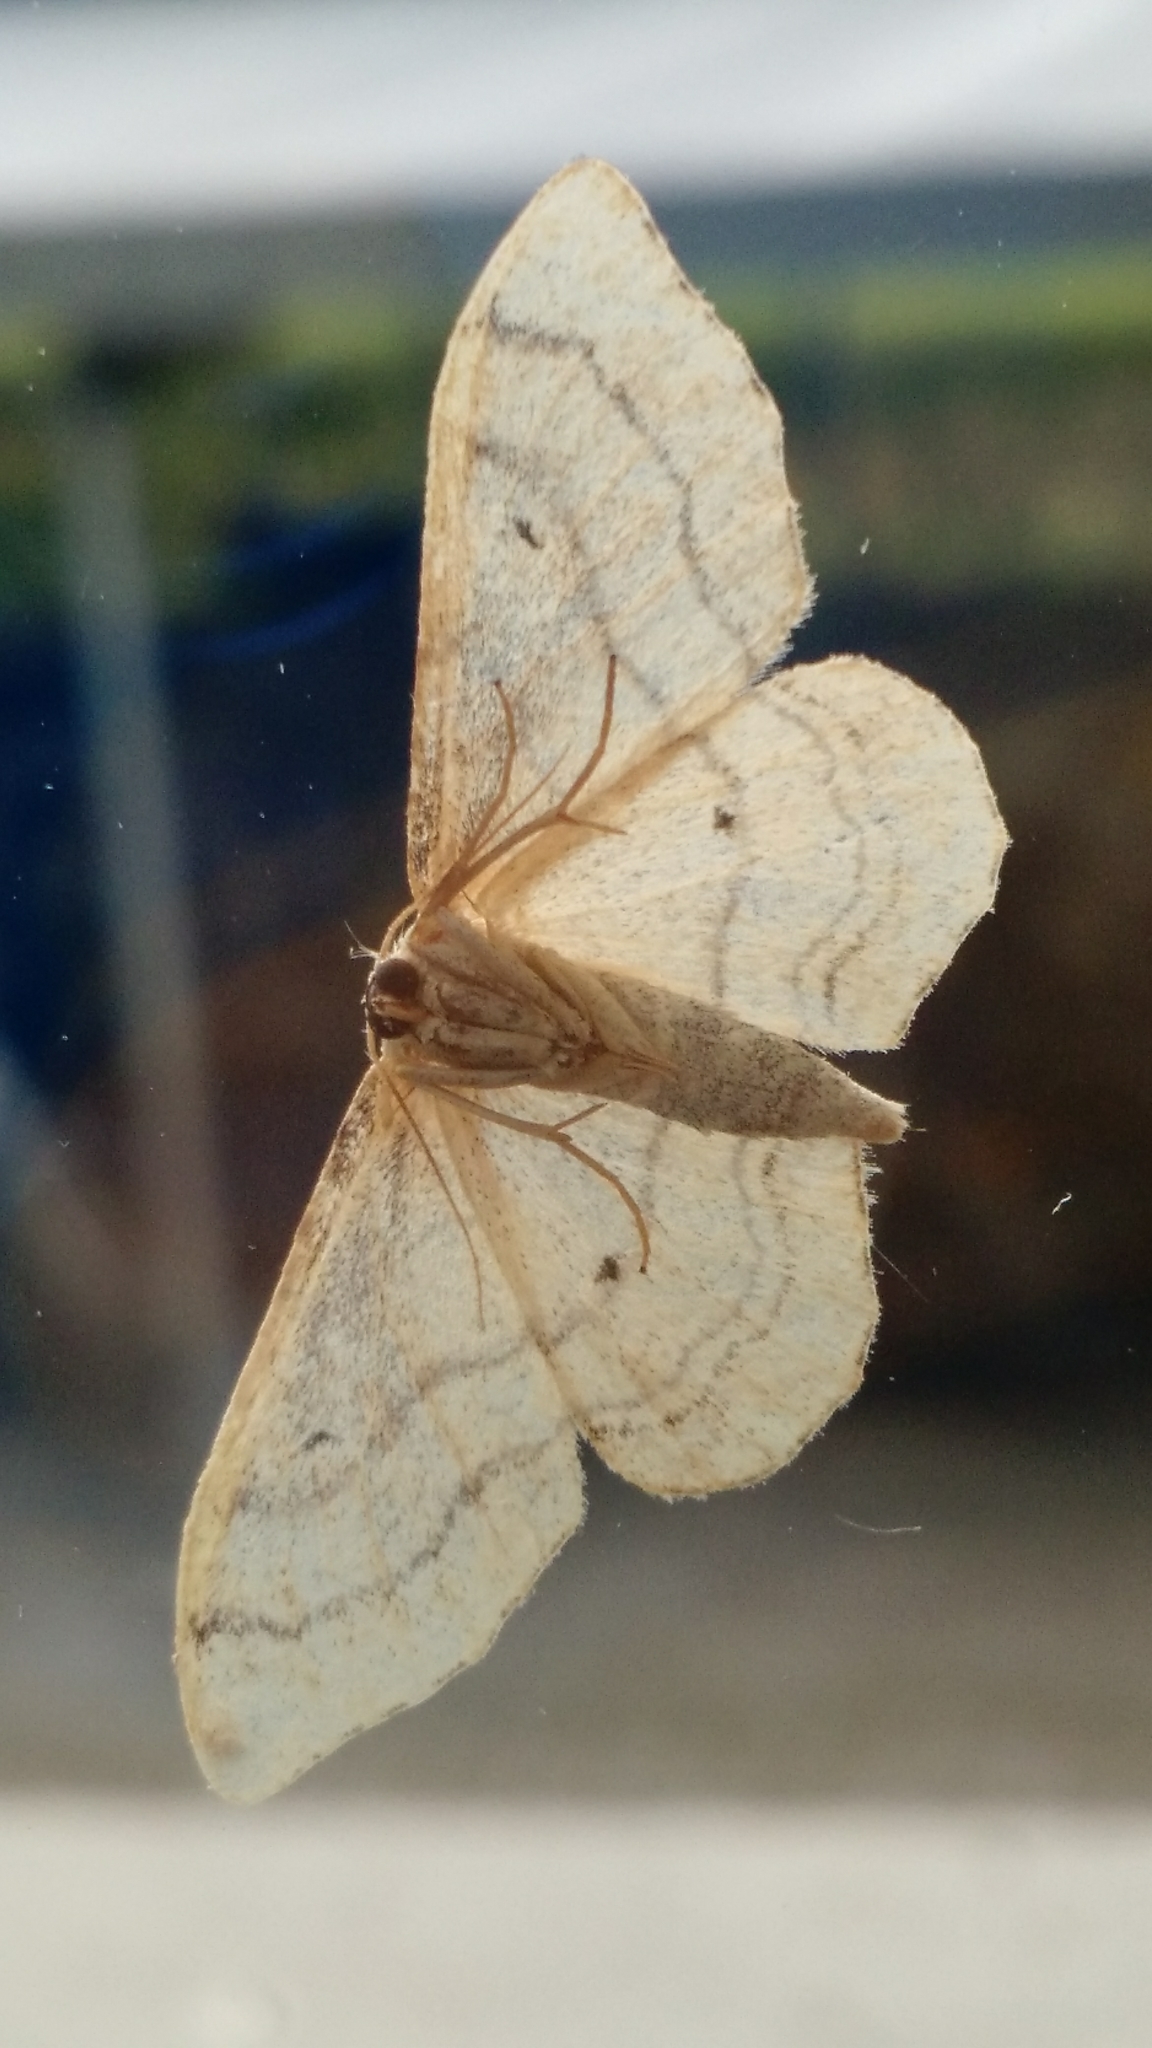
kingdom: Animalia
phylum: Arthropoda
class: Insecta
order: Lepidoptera
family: Geometridae
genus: Idaea
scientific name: Idaea aversata
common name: Riband wave
